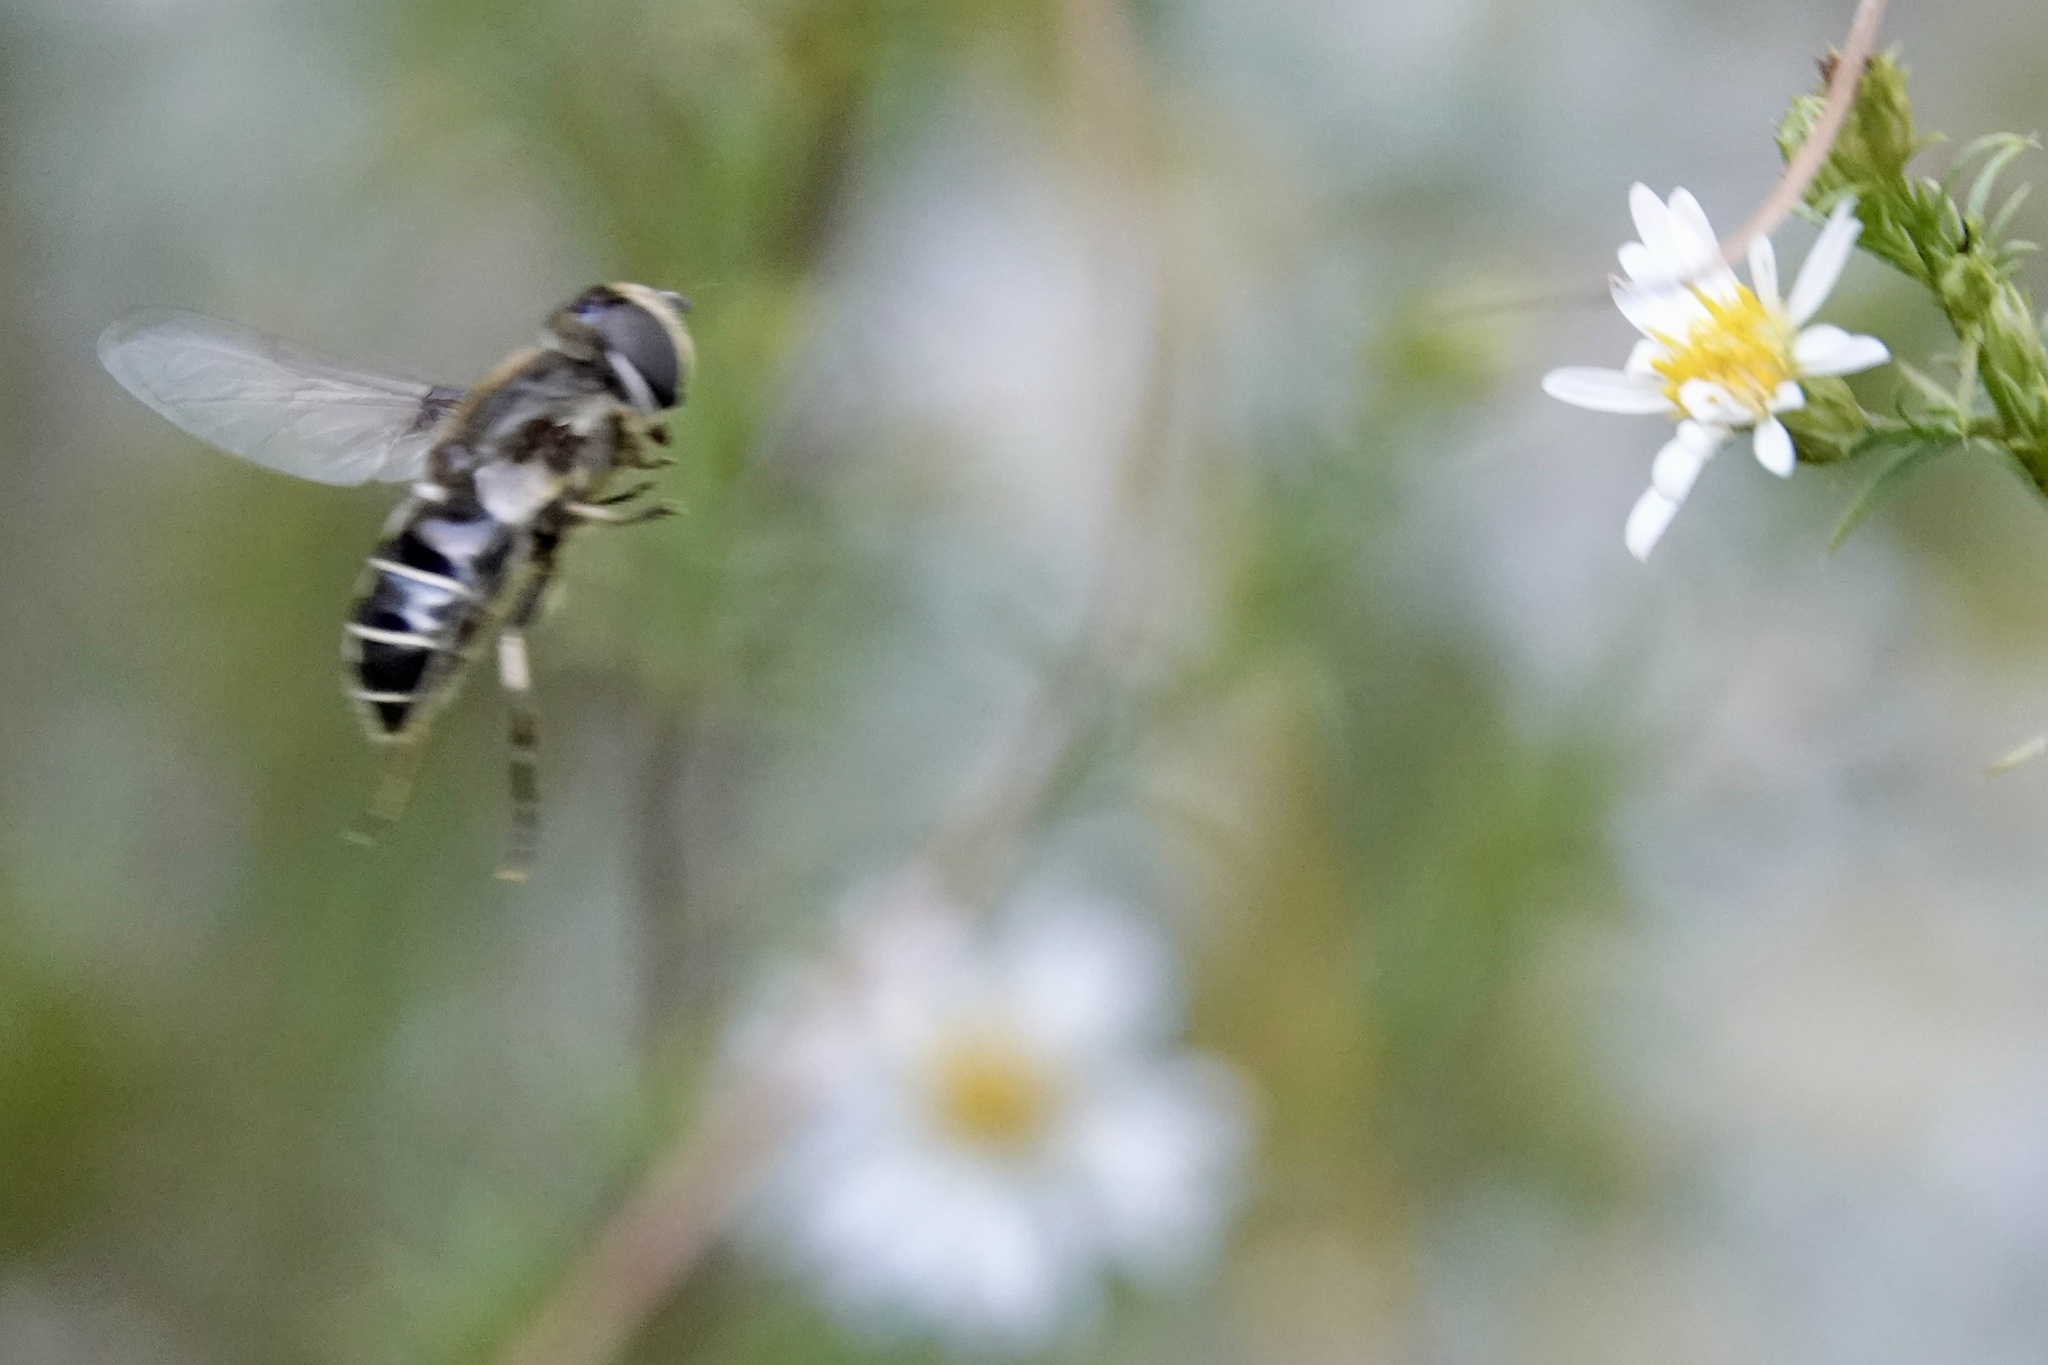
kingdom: Animalia
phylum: Arthropoda
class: Insecta
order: Diptera
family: Syrphidae
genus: Eristalis
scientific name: Eristalis dimidiata
